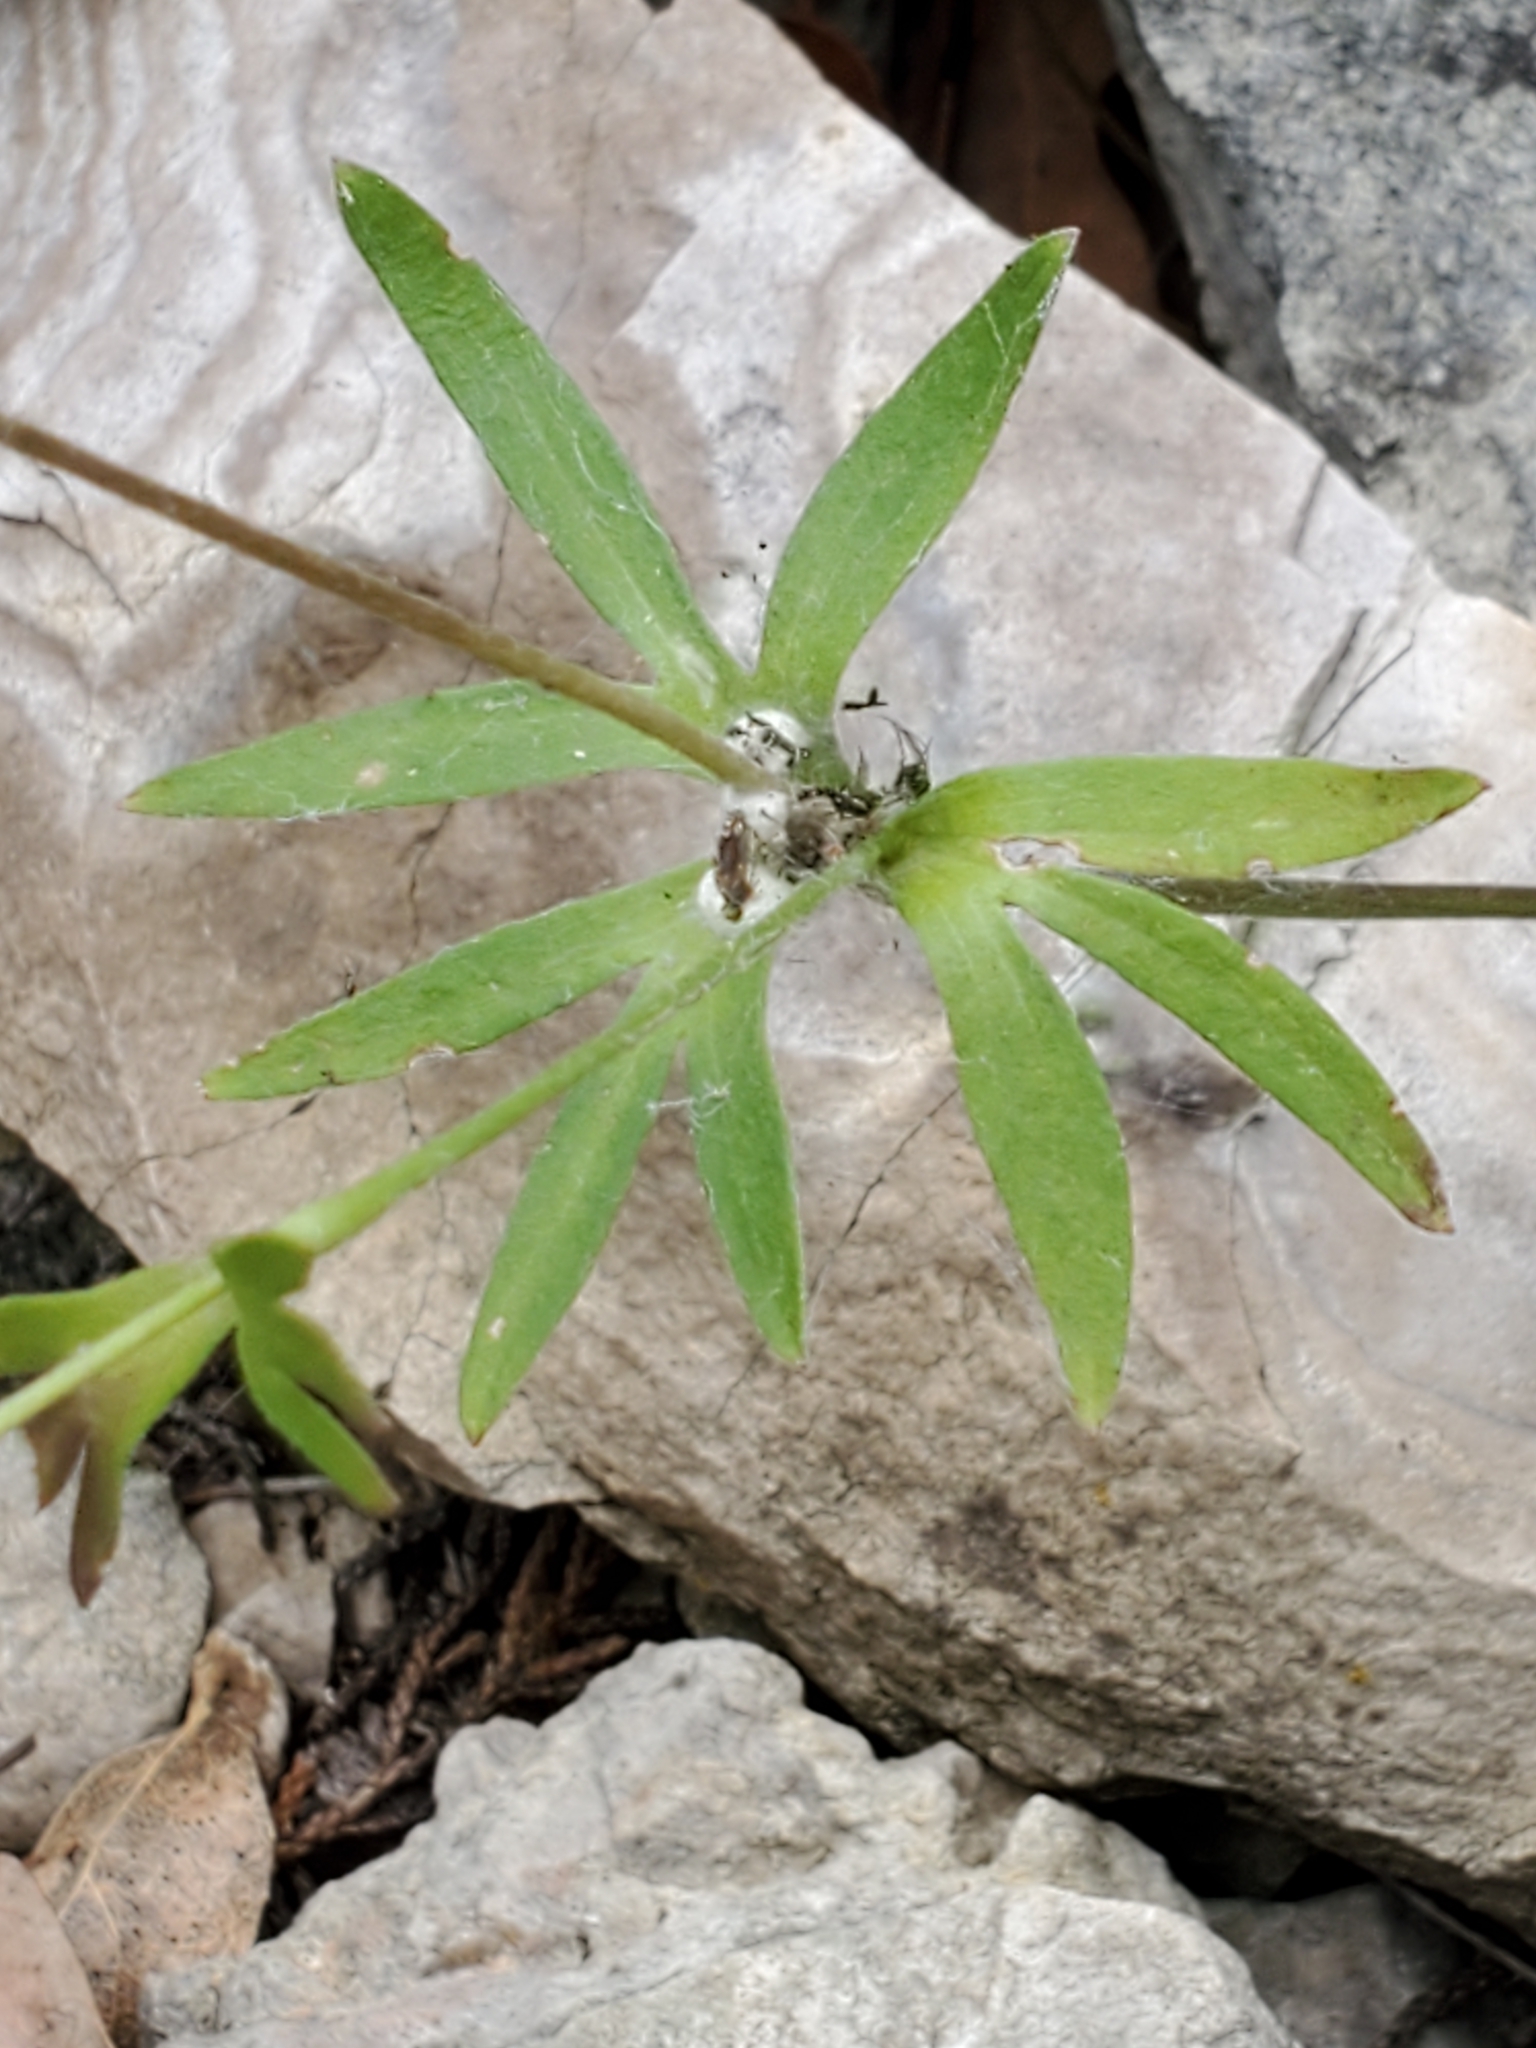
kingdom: Plantae
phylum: Tracheophyta
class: Magnoliopsida
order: Ranunculales
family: Ranunculaceae
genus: Anemone
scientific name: Anemone edwardsiana
